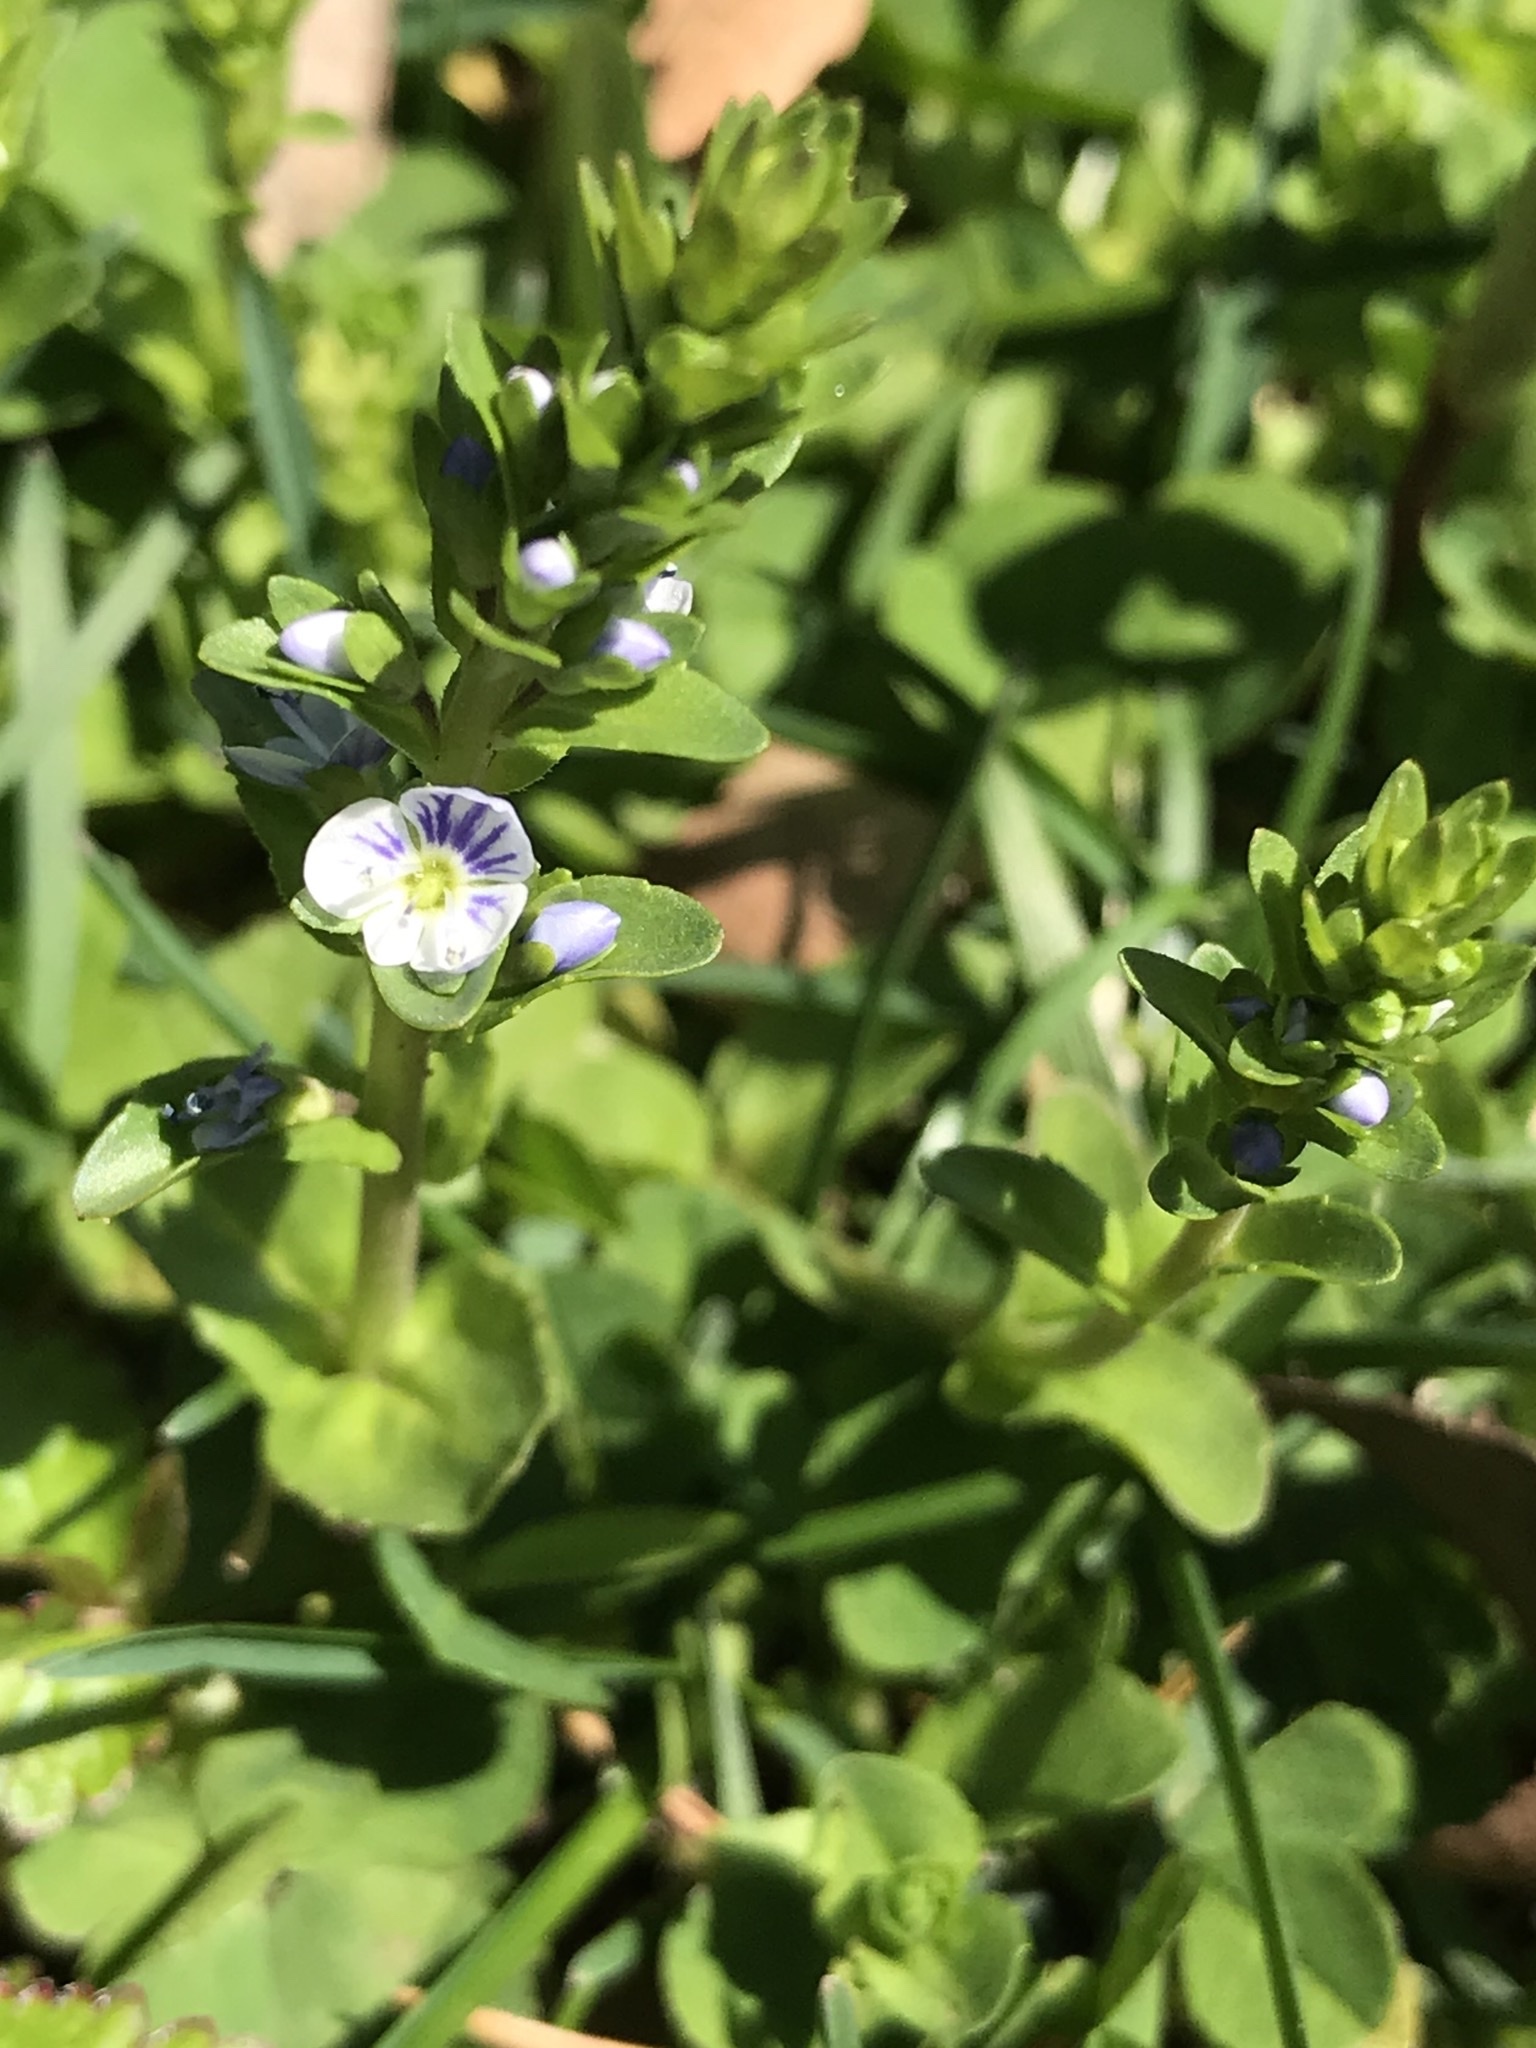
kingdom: Plantae
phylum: Tracheophyta
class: Magnoliopsida
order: Lamiales
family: Plantaginaceae
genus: Veronica
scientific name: Veronica serpyllifolia
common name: Thyme-leaved speedwell
